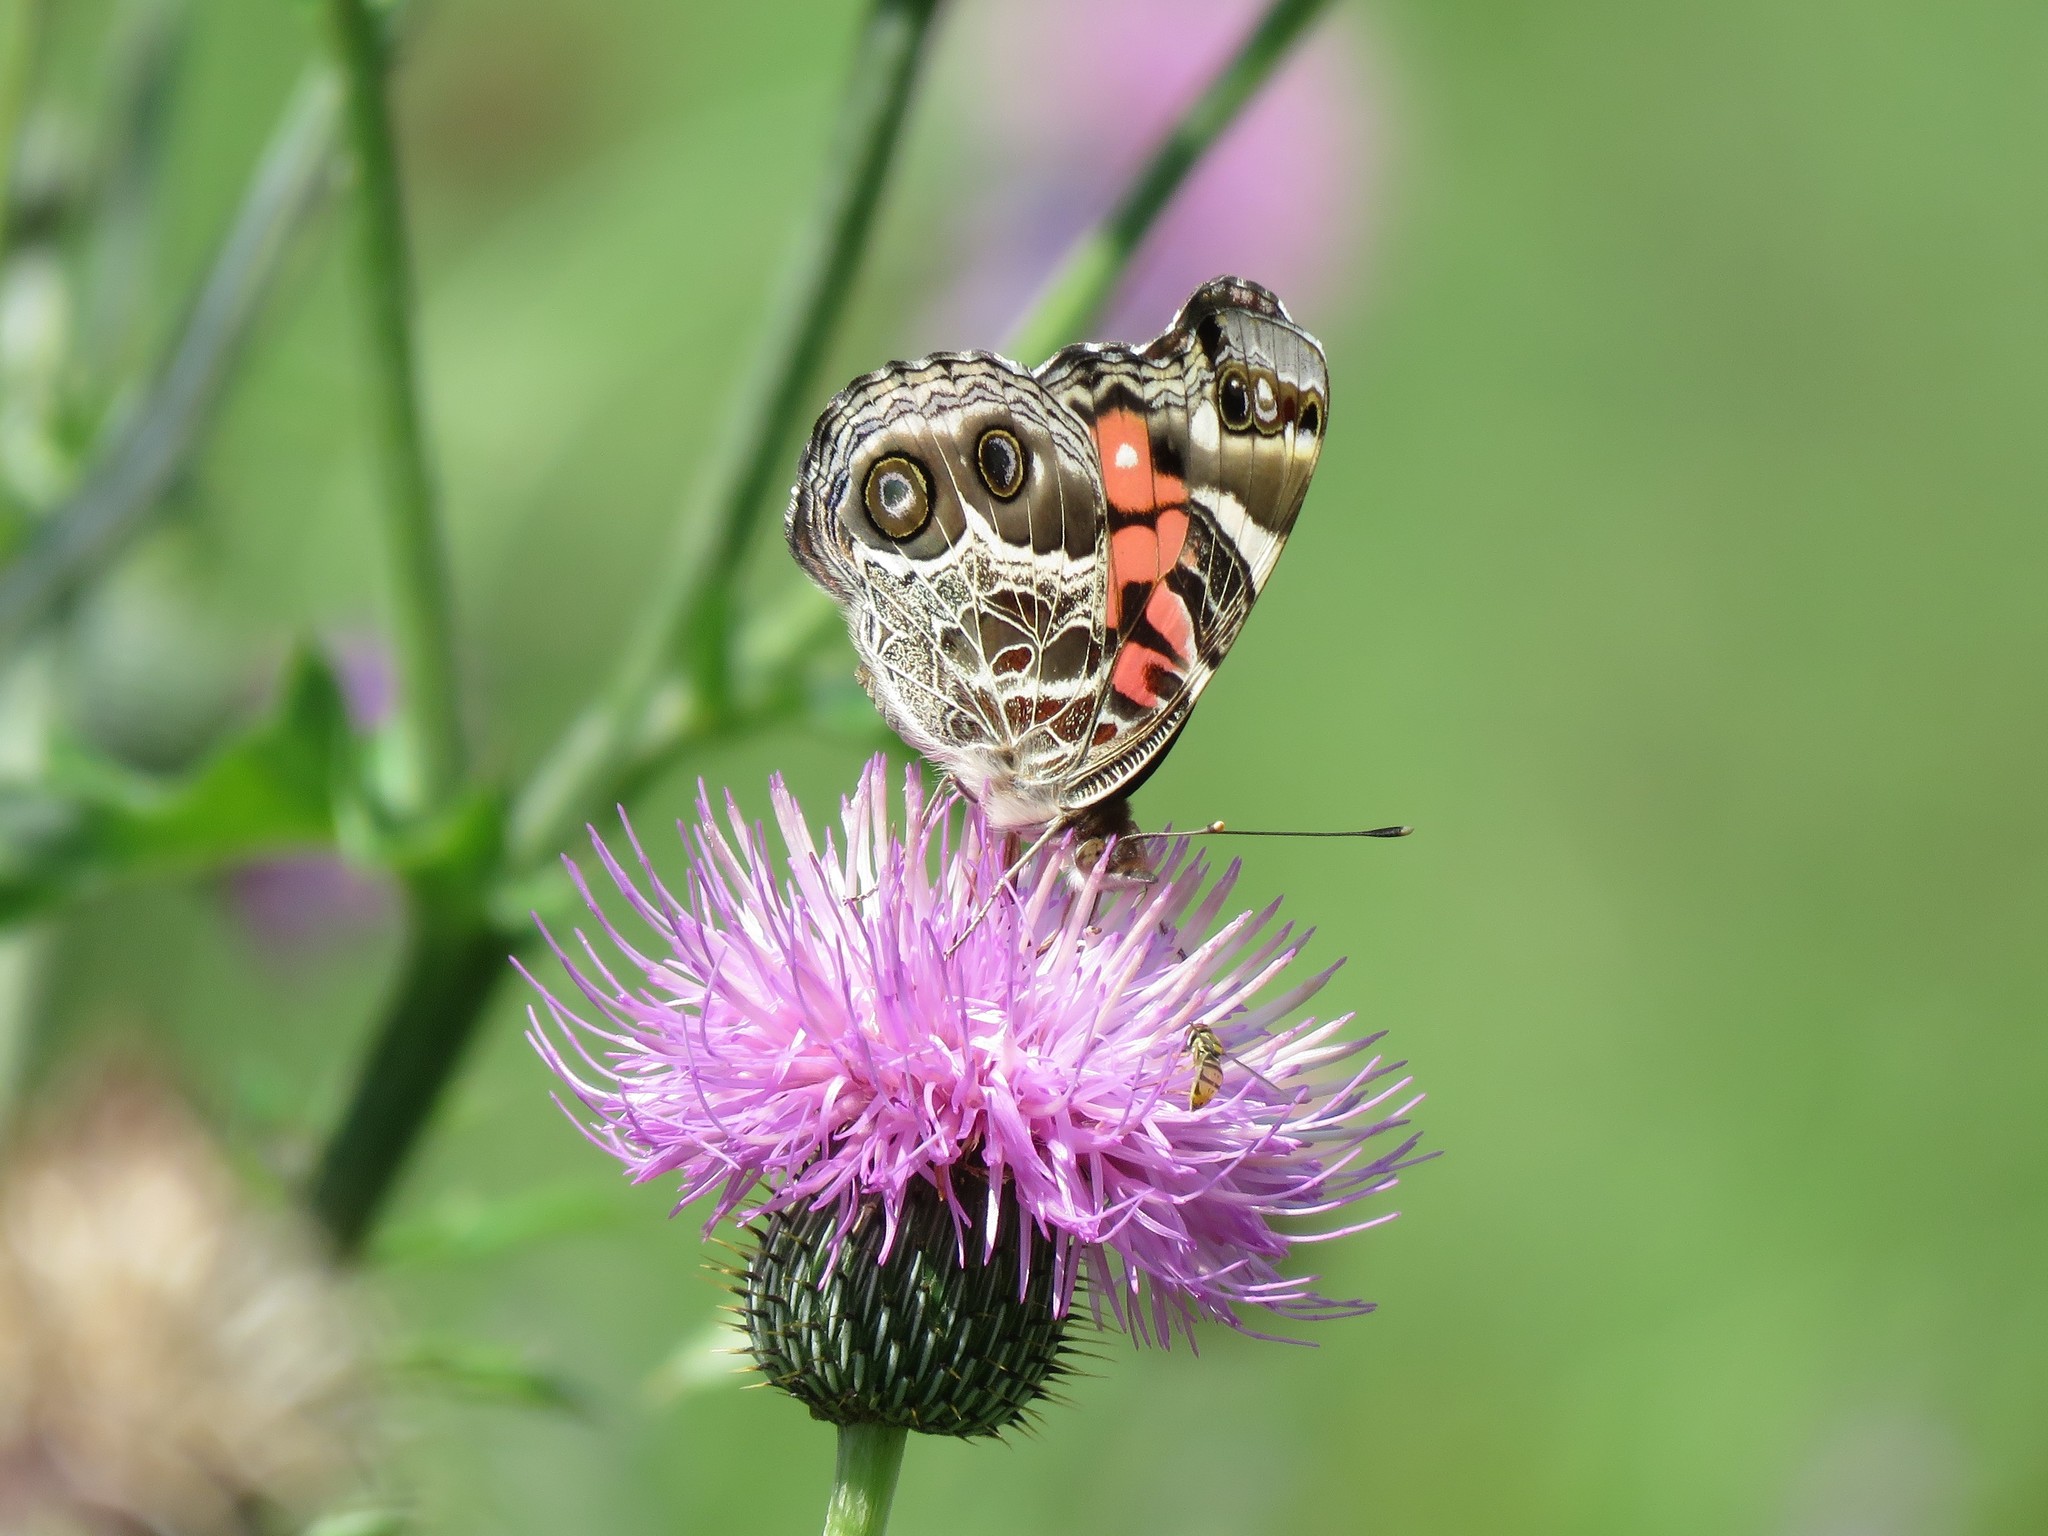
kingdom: Animalia
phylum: Arthropoda
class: Insecta
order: Lepidoptera
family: Nymphalidae
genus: Vanessa
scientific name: Vanessa virginiensis
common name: American lady
